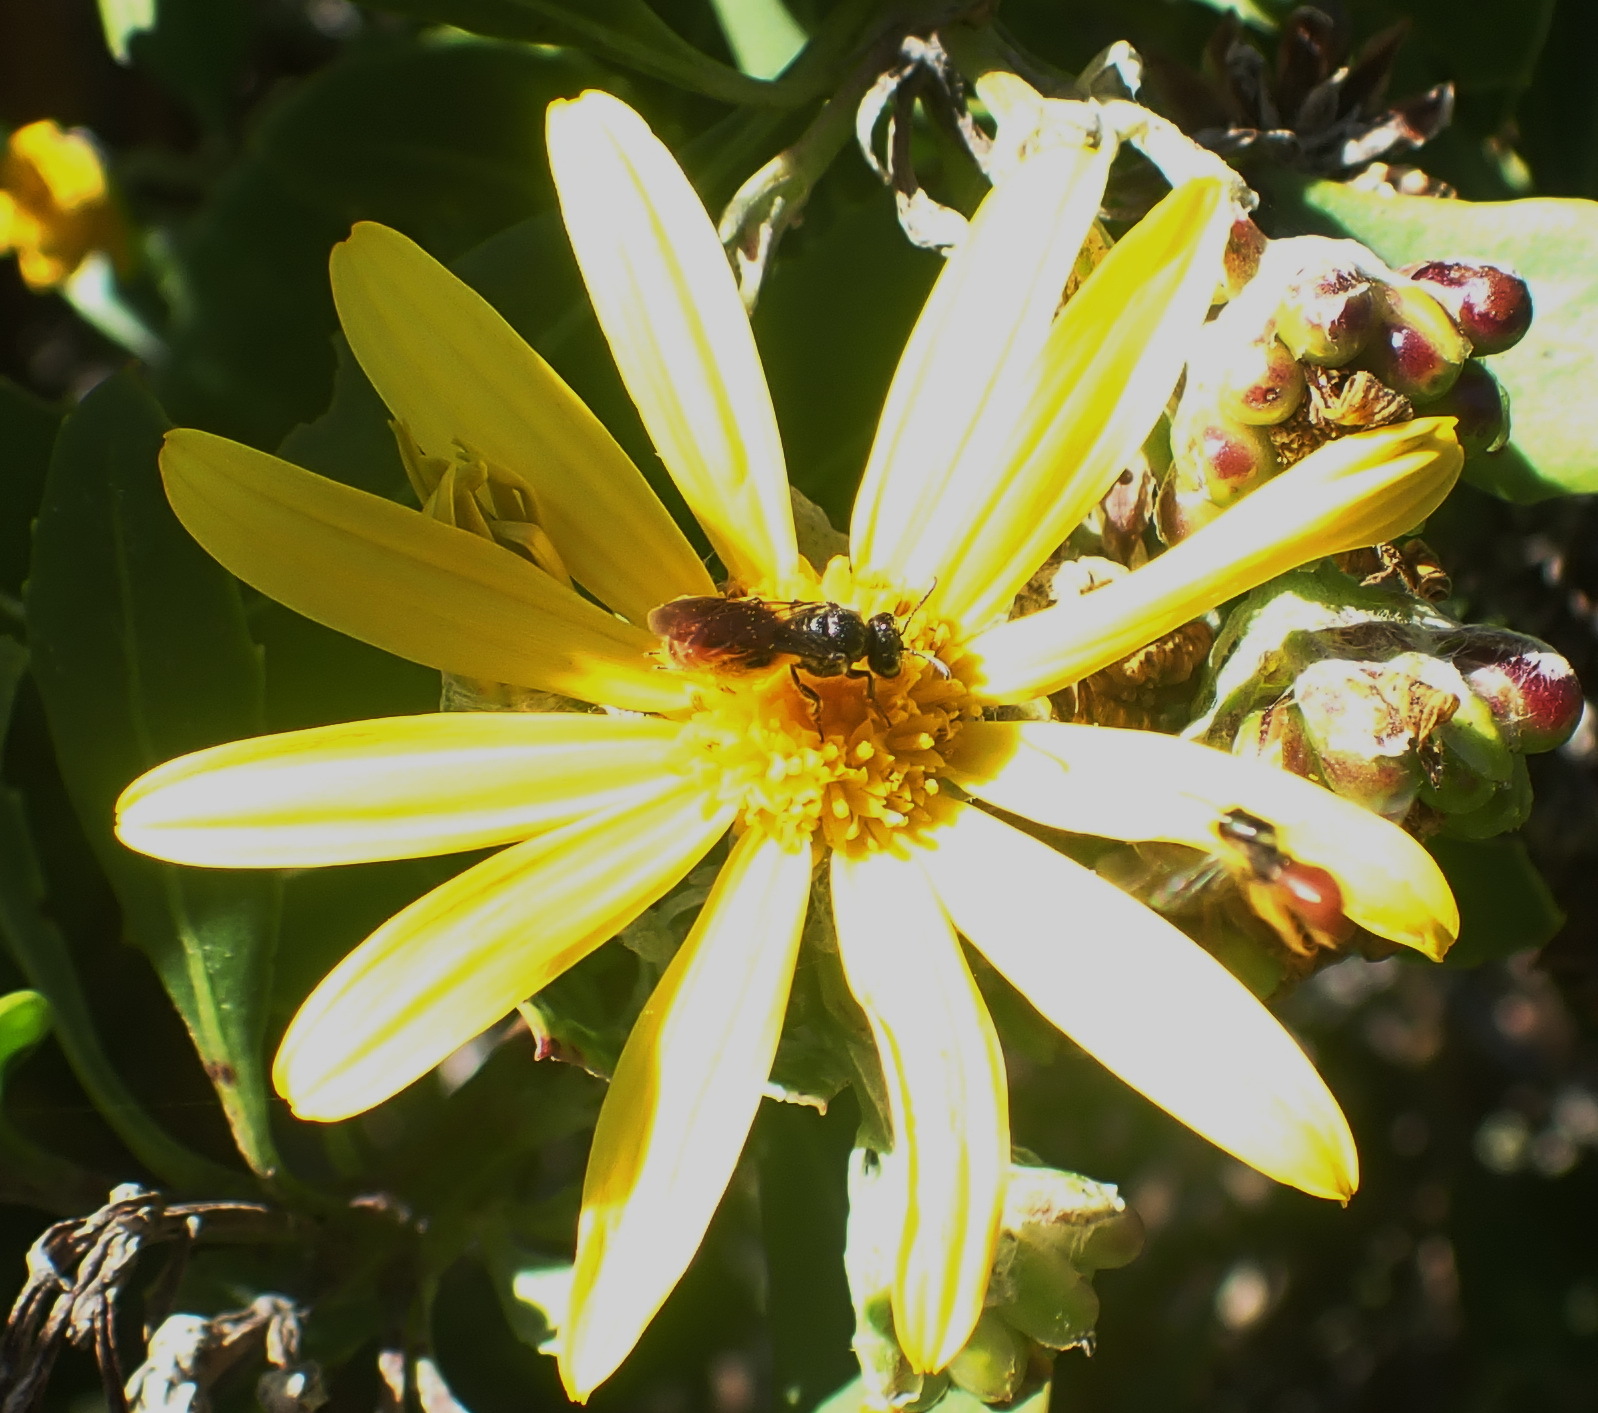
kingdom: Plantae
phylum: Tracheophyta
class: Magnoliopsida
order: Asterales
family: Asteraceae
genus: Osteospermum
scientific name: Osteospermum moniliferum
